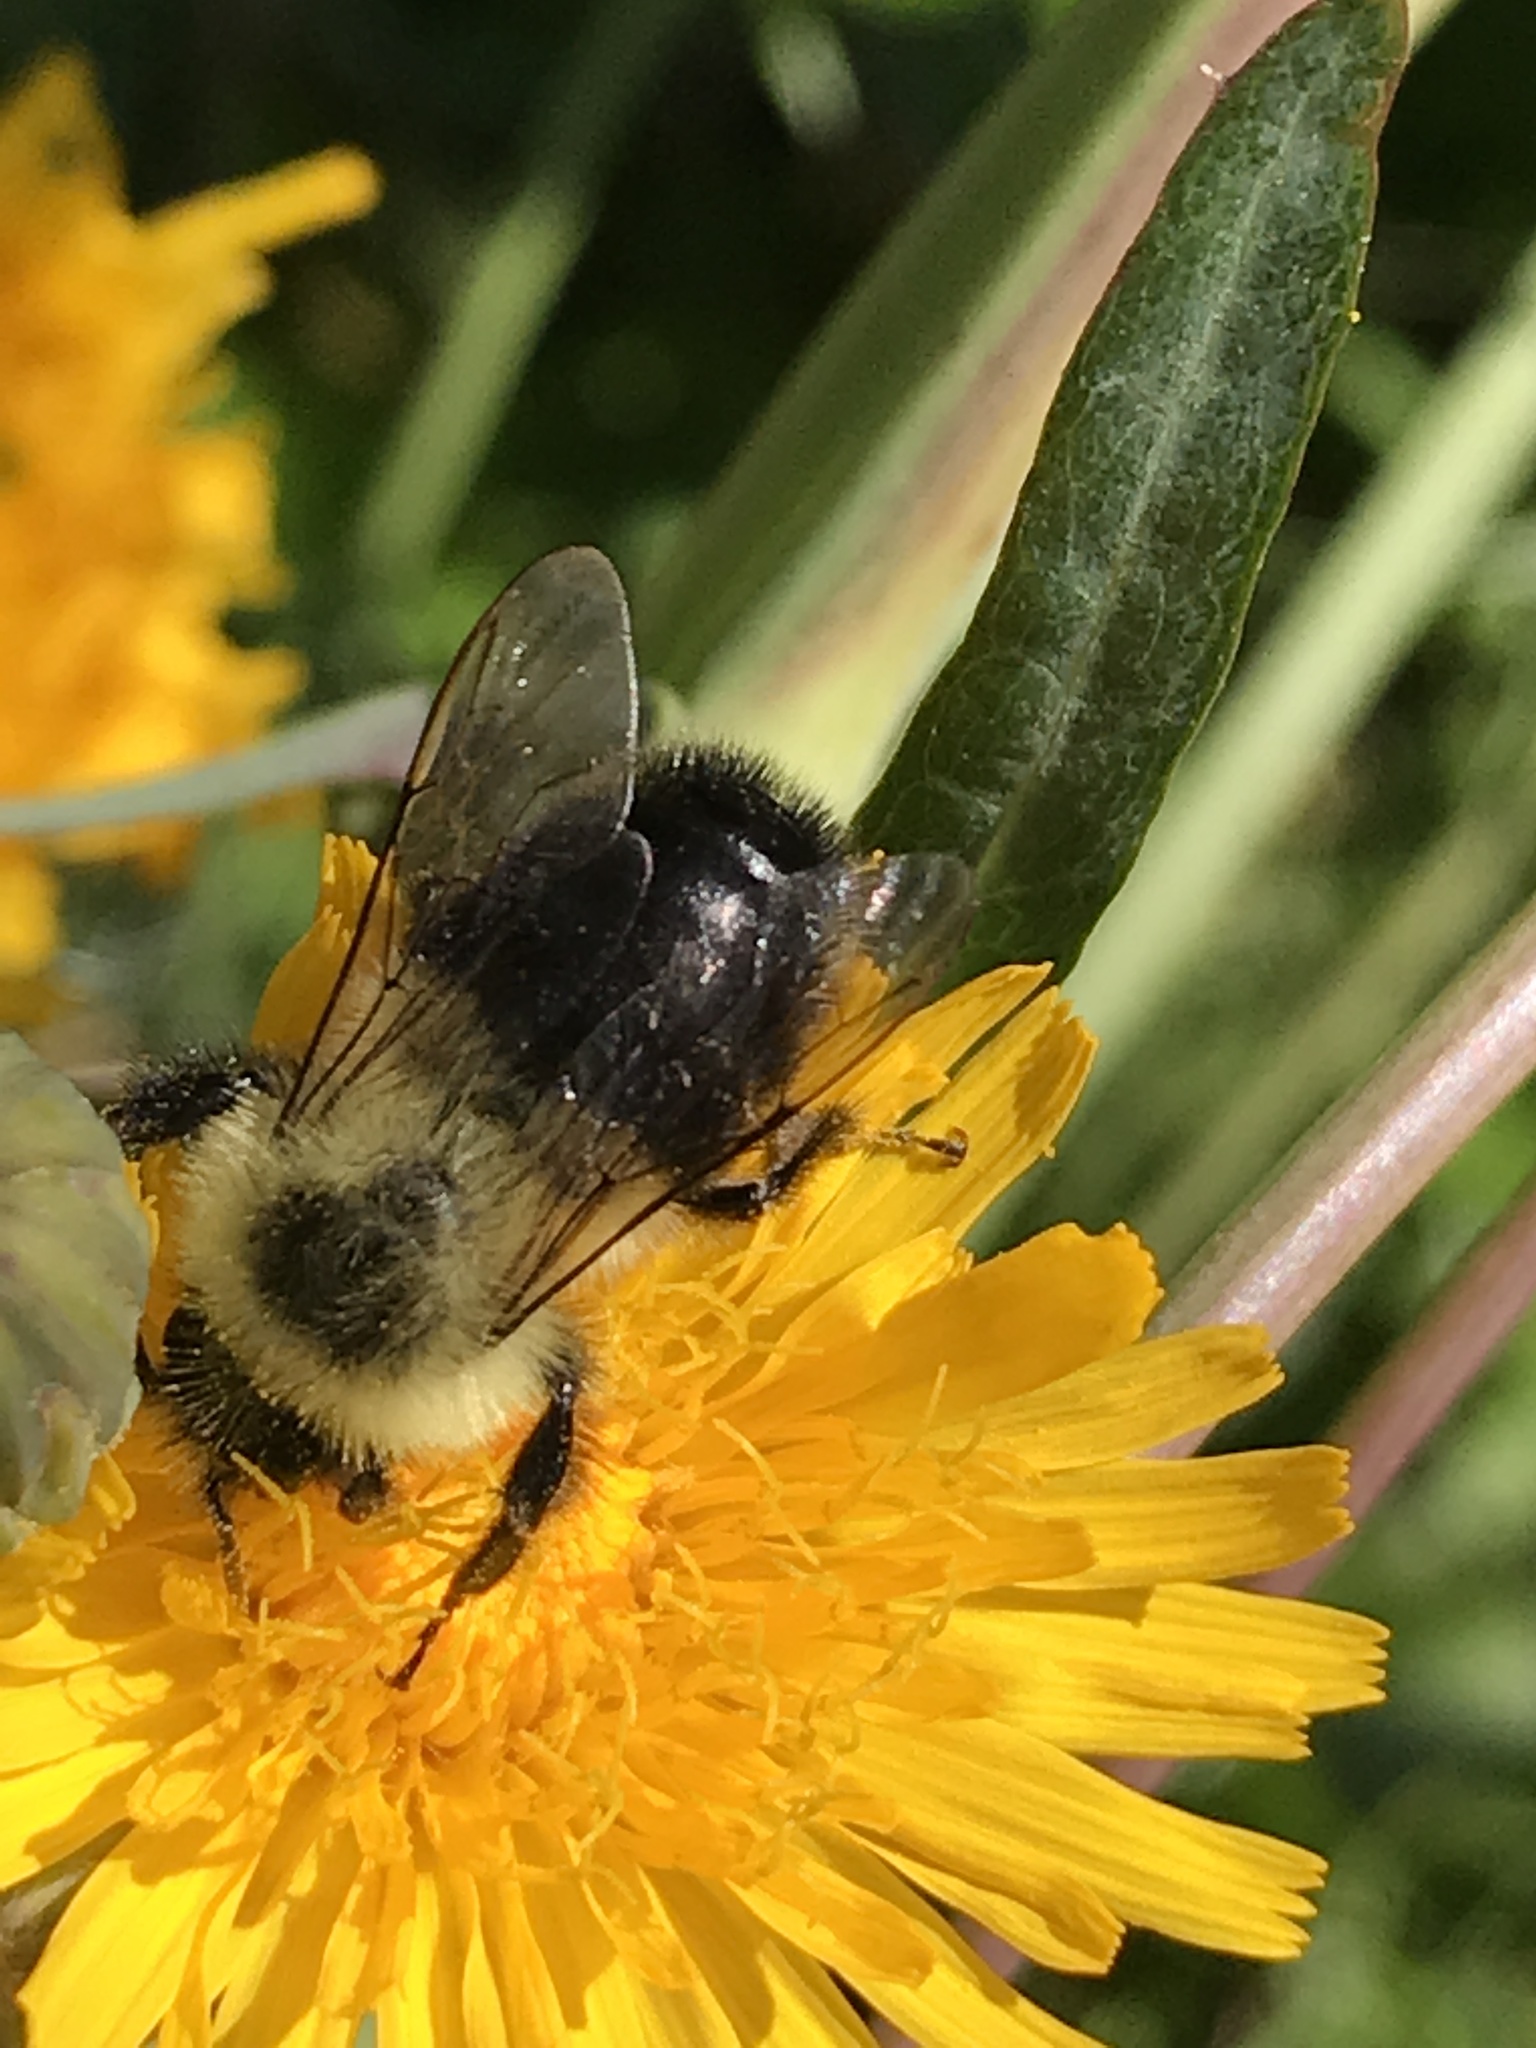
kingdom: Animalia
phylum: Arthropoda
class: Insecta
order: Hymenoptera
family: Apidae
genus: Bombus
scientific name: Bombus impatiens
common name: Common eastern bumble bee
